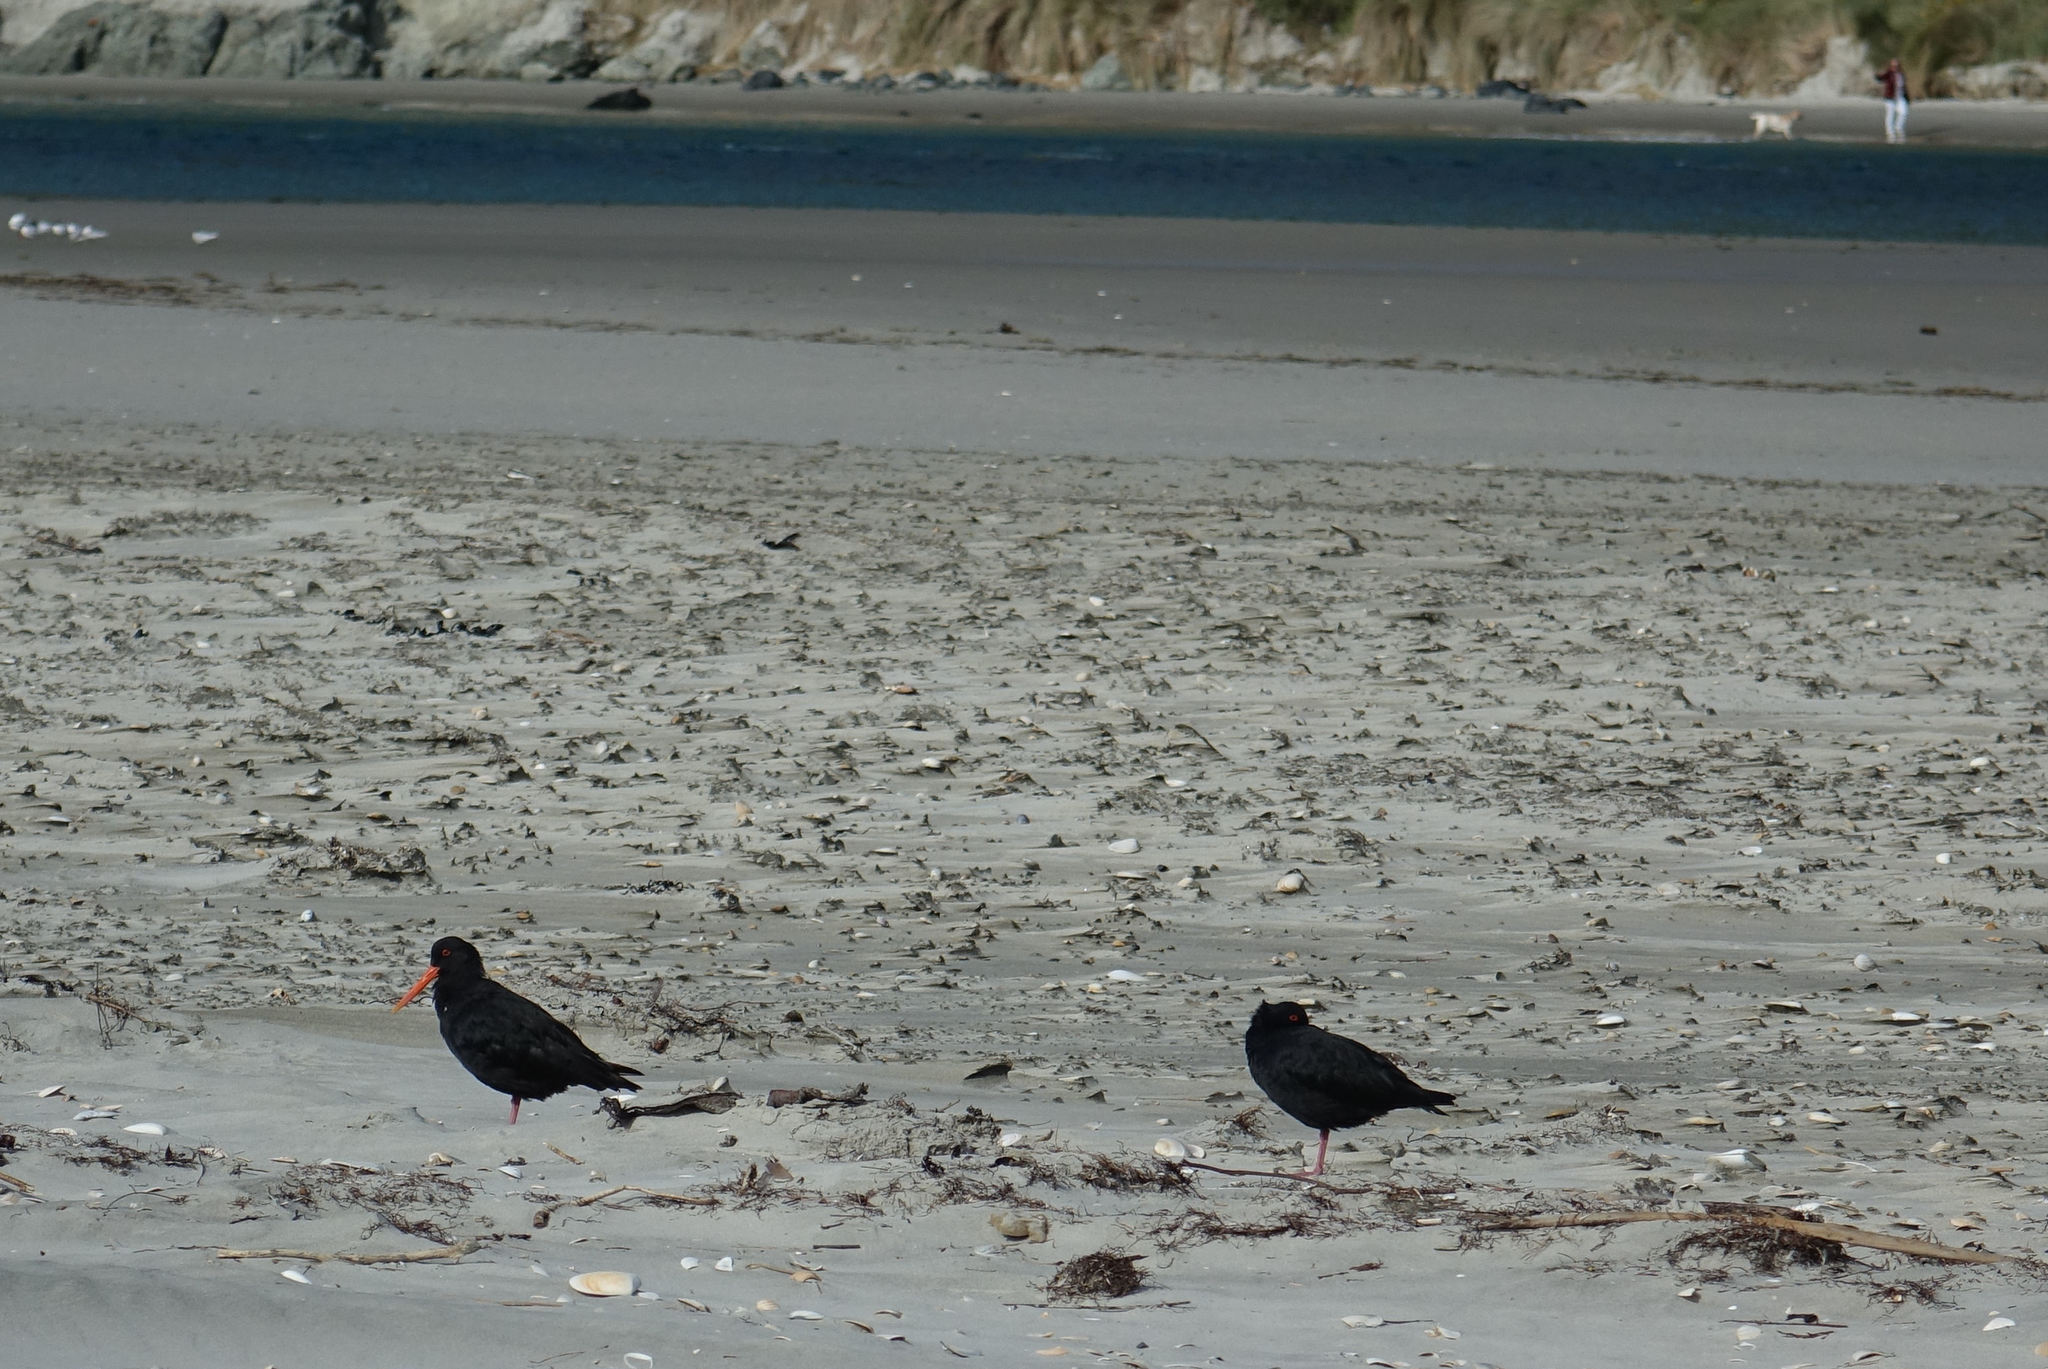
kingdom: Animalia
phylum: Chordata
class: Aves
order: Charadriiformes
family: Haematopodidae
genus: Haematopus
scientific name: Haematopus unicolor
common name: Variable oystercatcher
